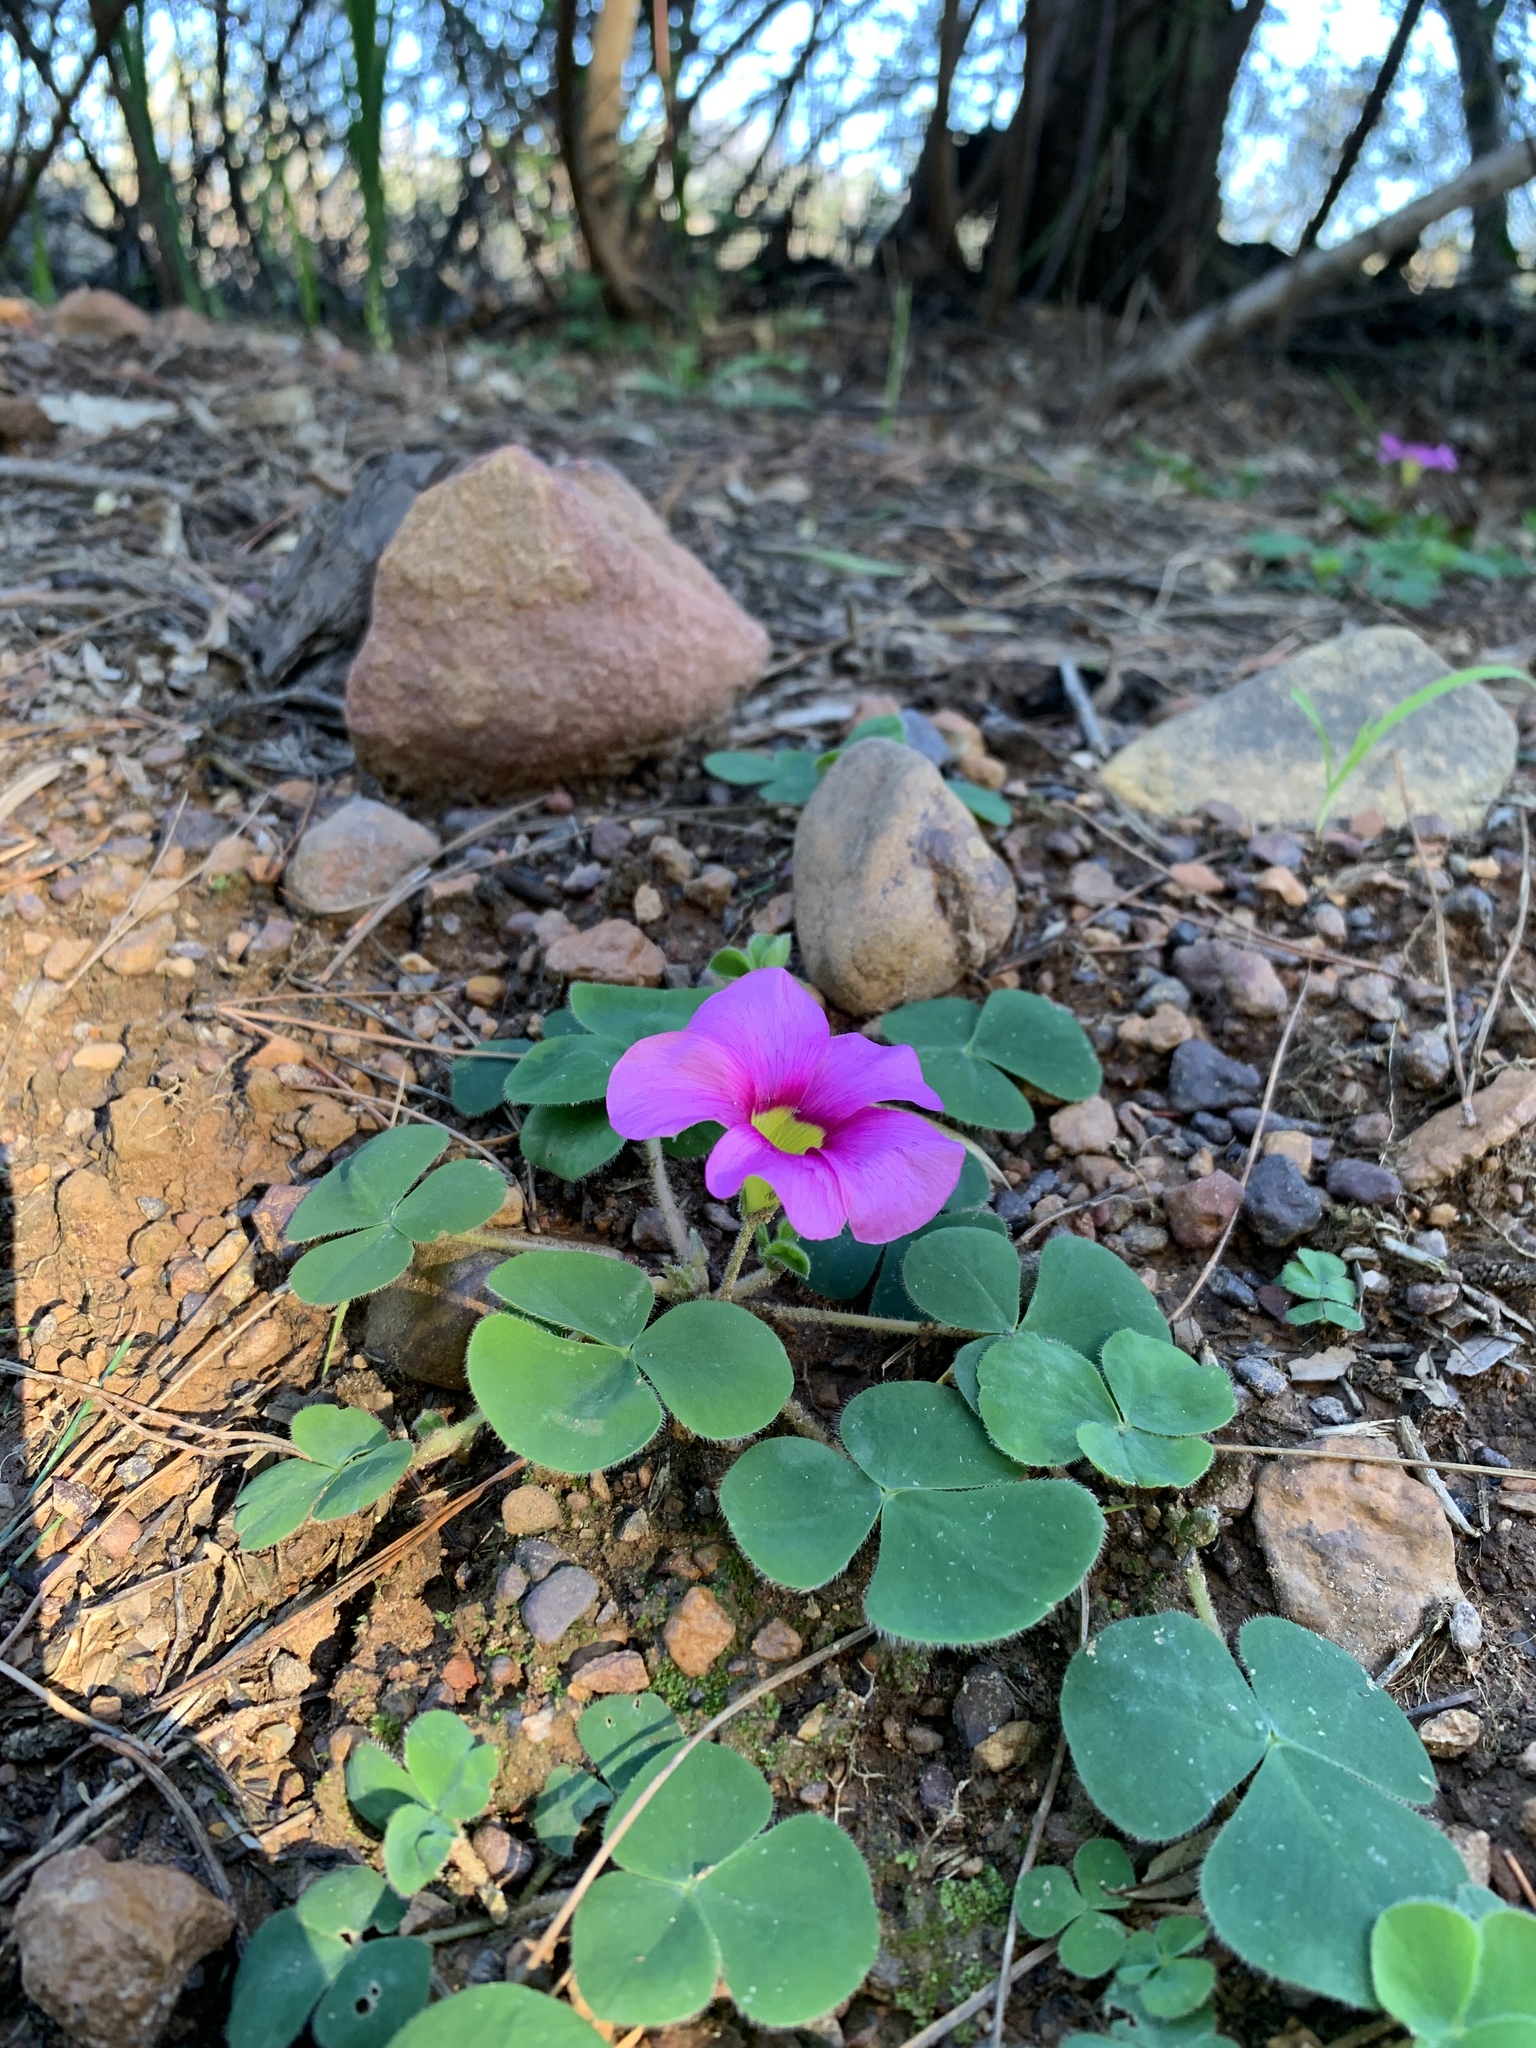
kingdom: Plantae
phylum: Tracheophyta
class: Magnoliopsida
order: Oxalidales
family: Oxalidaceae
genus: Oxalis
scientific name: Oxalis purpurea
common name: Purple woodsorrel
